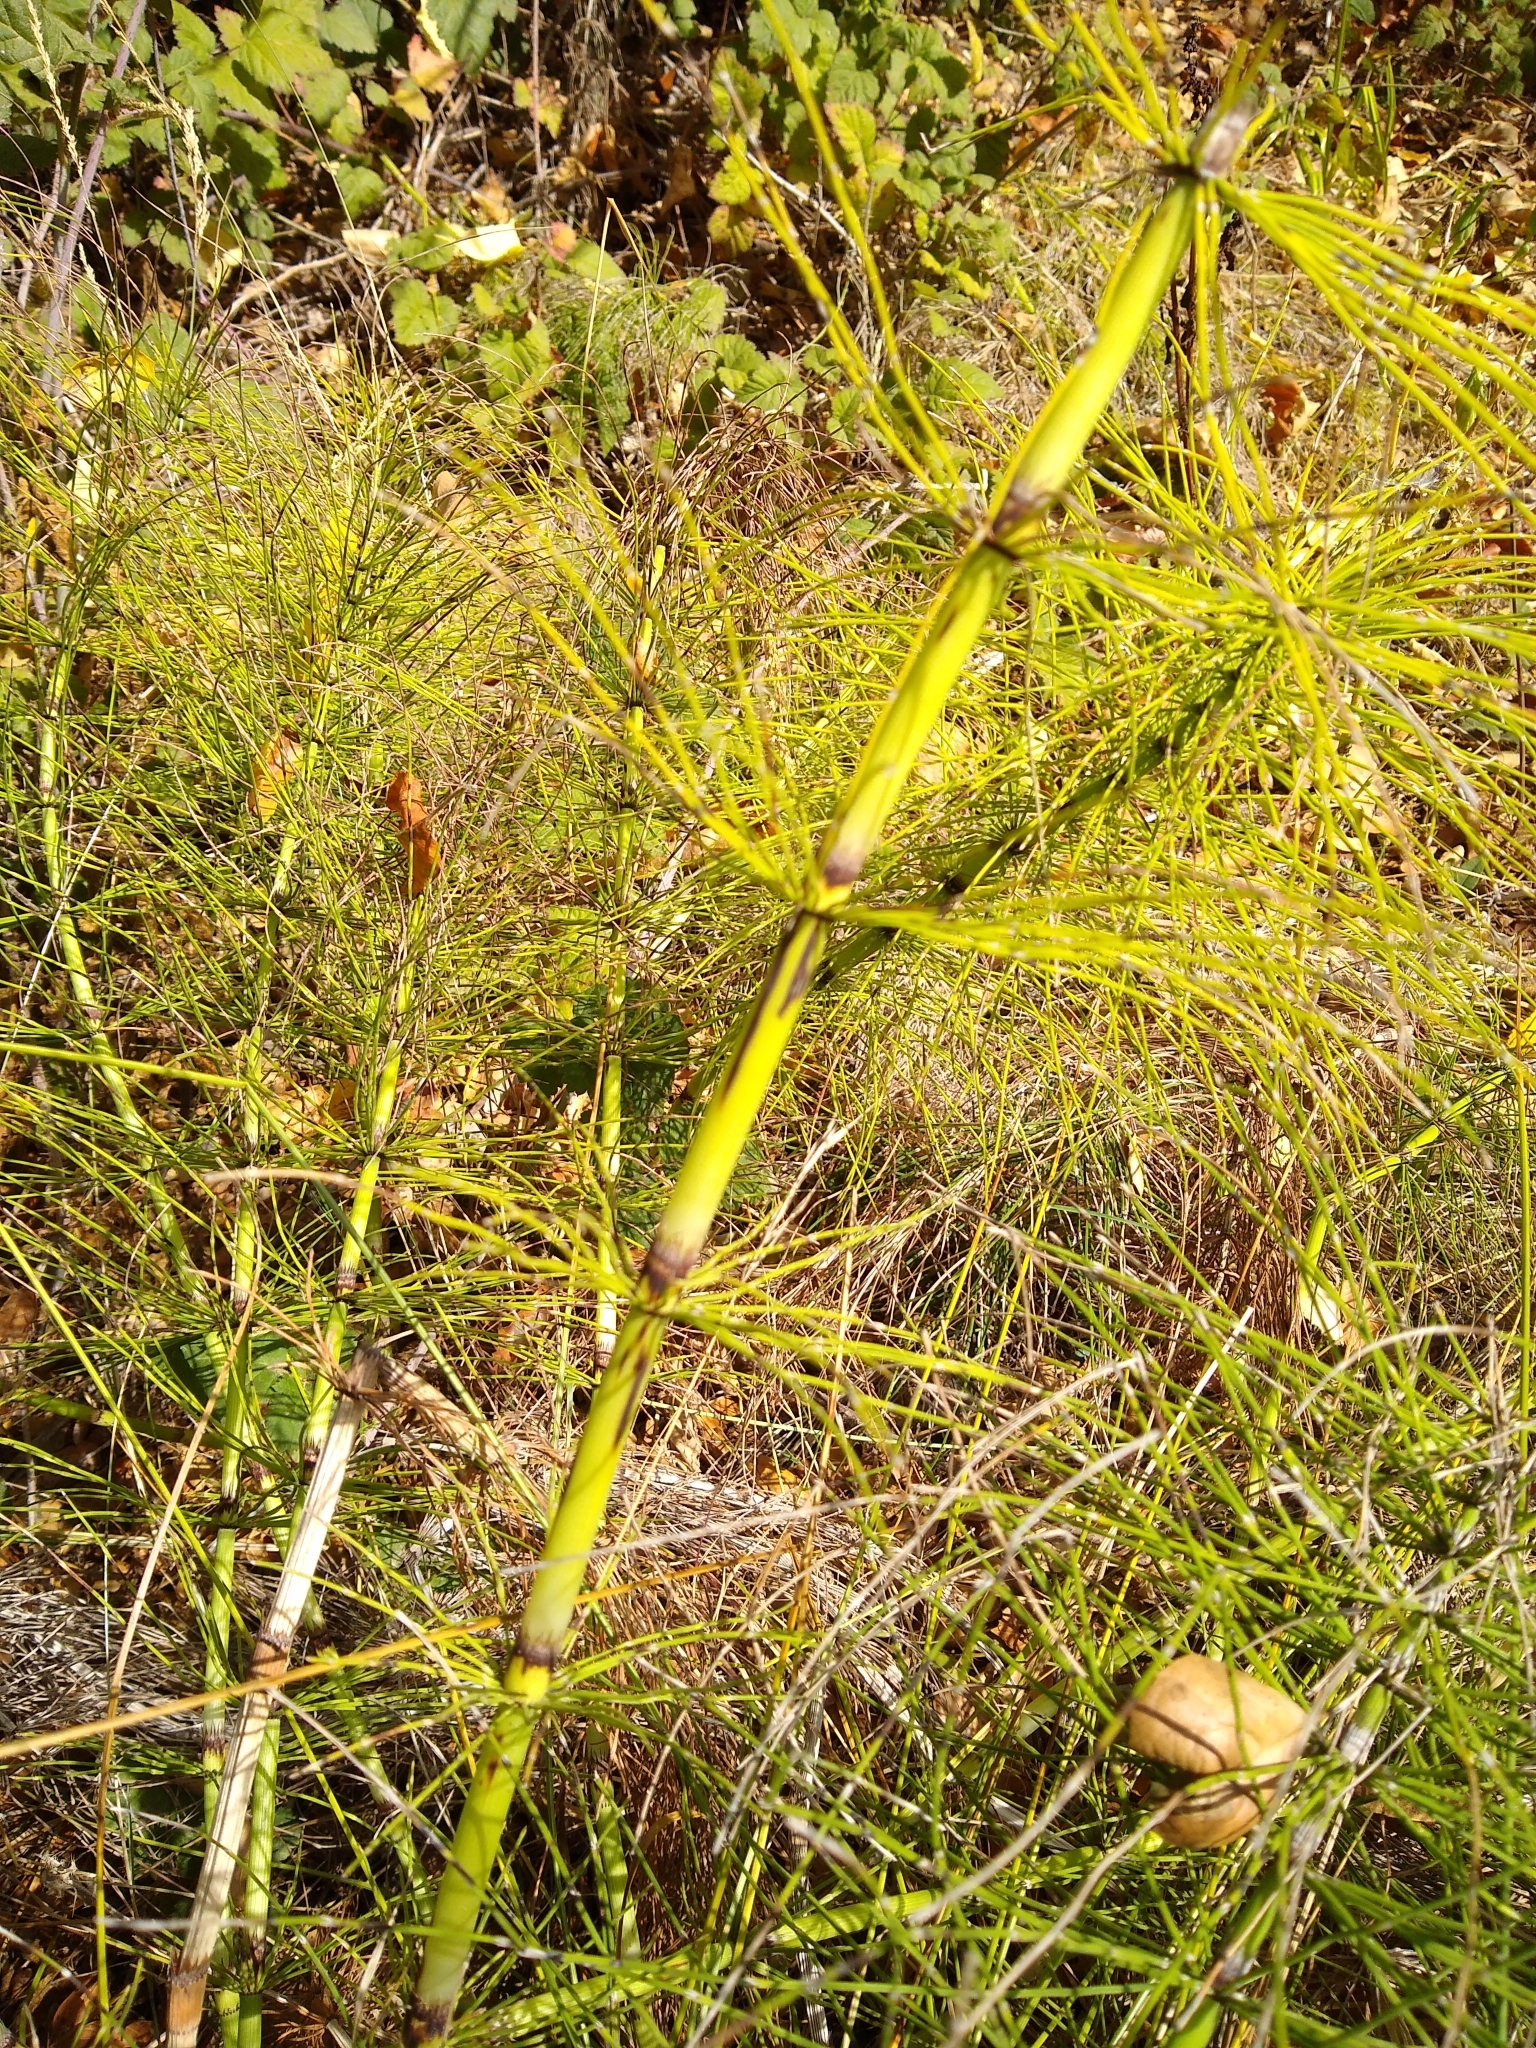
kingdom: Plantae
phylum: Tracheophyta
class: Polypodiopsida
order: Equisetales
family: Equisetaceae
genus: Equisetum
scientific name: Equisetum braunii
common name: Braun's horsetail
